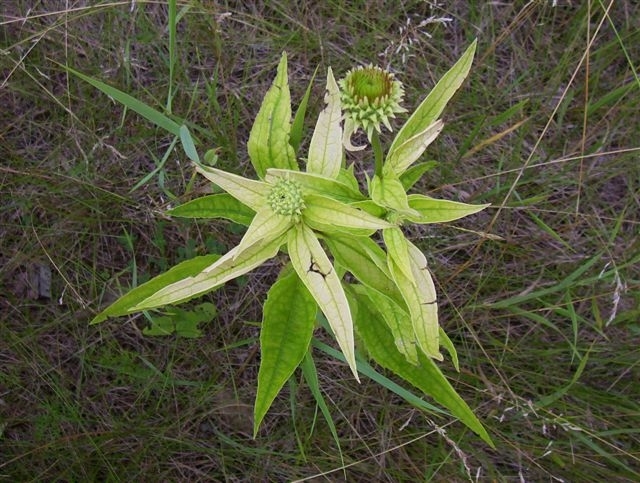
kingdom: Bacteria
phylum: Proteobacteria
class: Gammaproteobacteria
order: Pseudomonadales
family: Pseudomonadaceae
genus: Pseudomonas
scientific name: Pseudomonas syringae
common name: Bacterial speck
